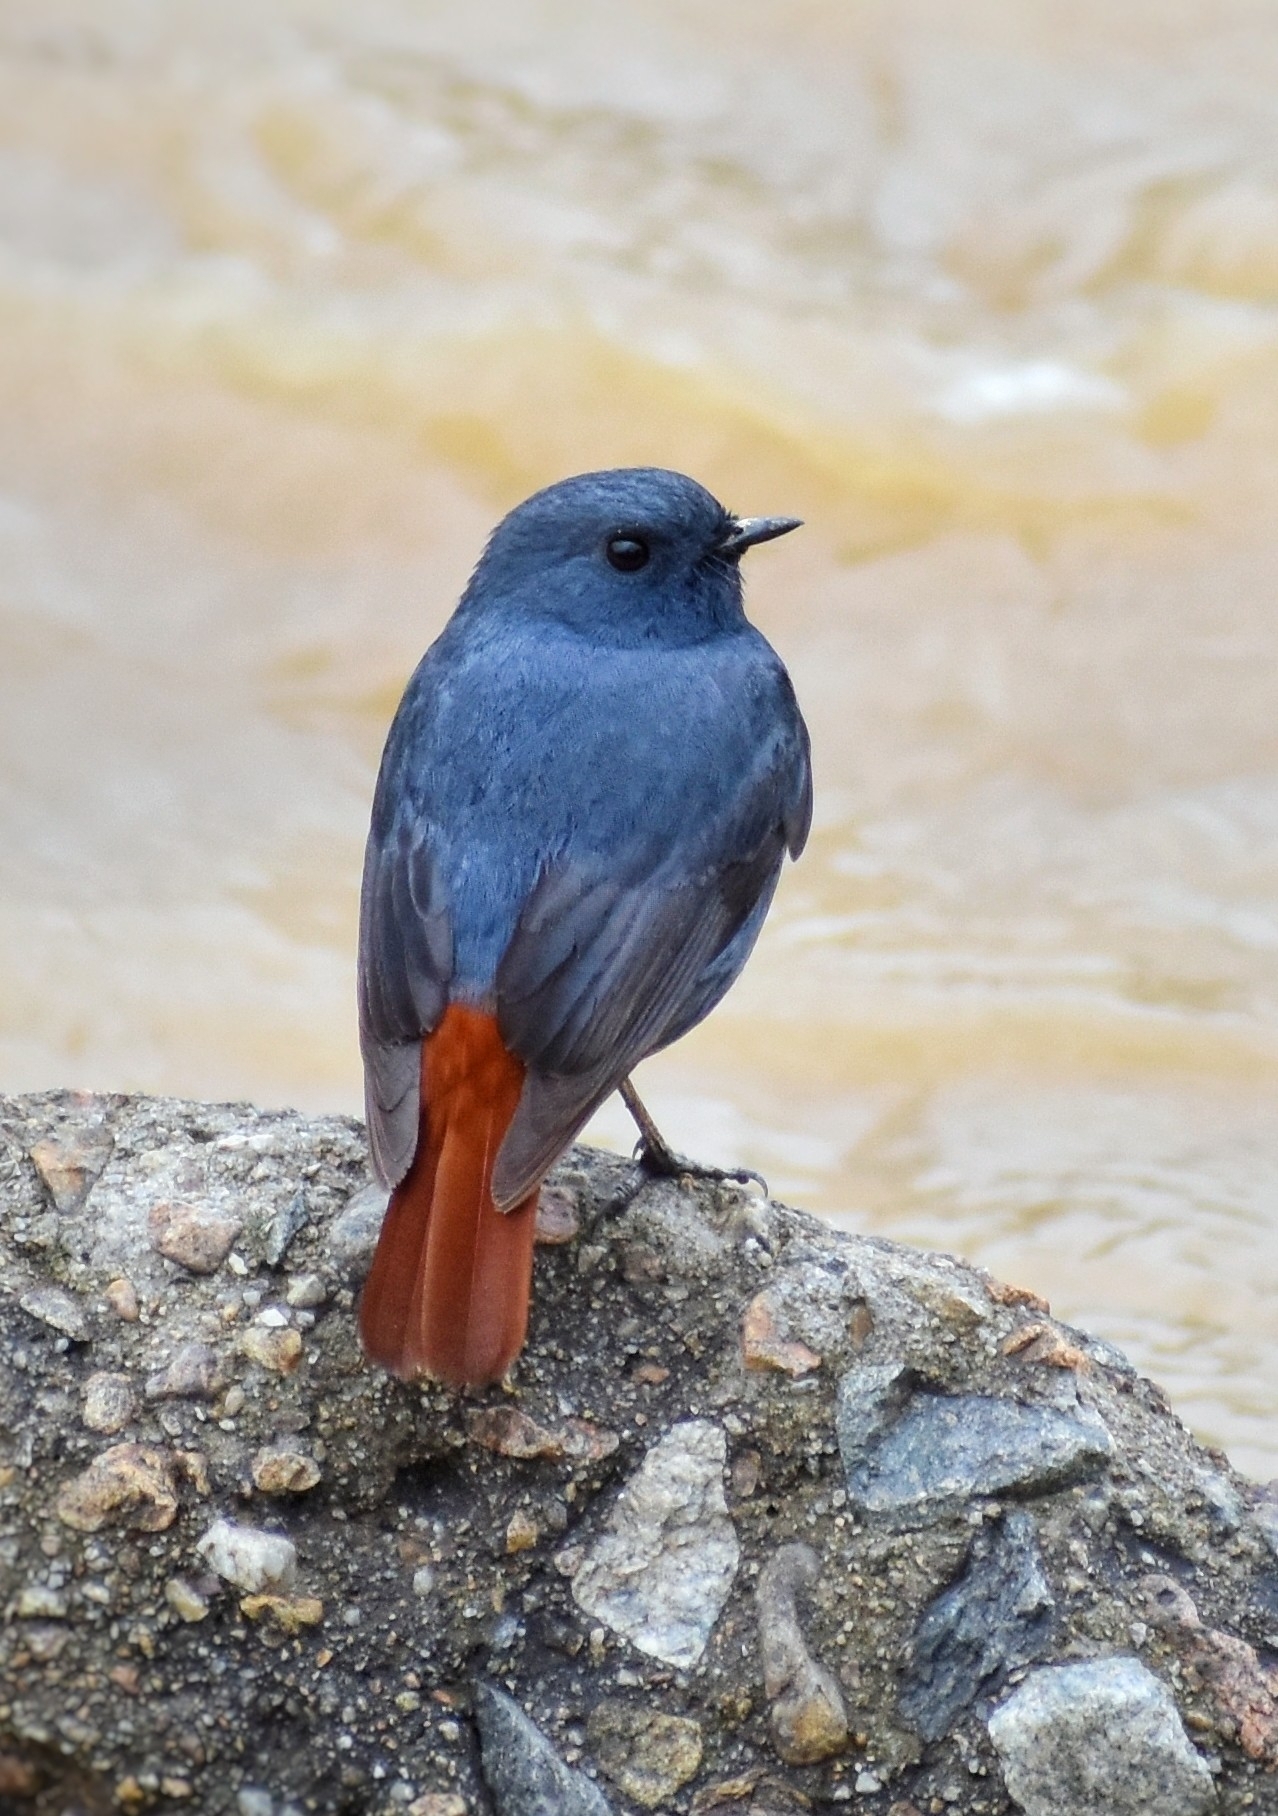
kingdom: Animalia
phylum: Chordata
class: Aves
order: Passeriformes
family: Muscicapidae
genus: Phoenicurus
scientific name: Phoenicurus fuliginosus
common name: Plumbeous water redstart
